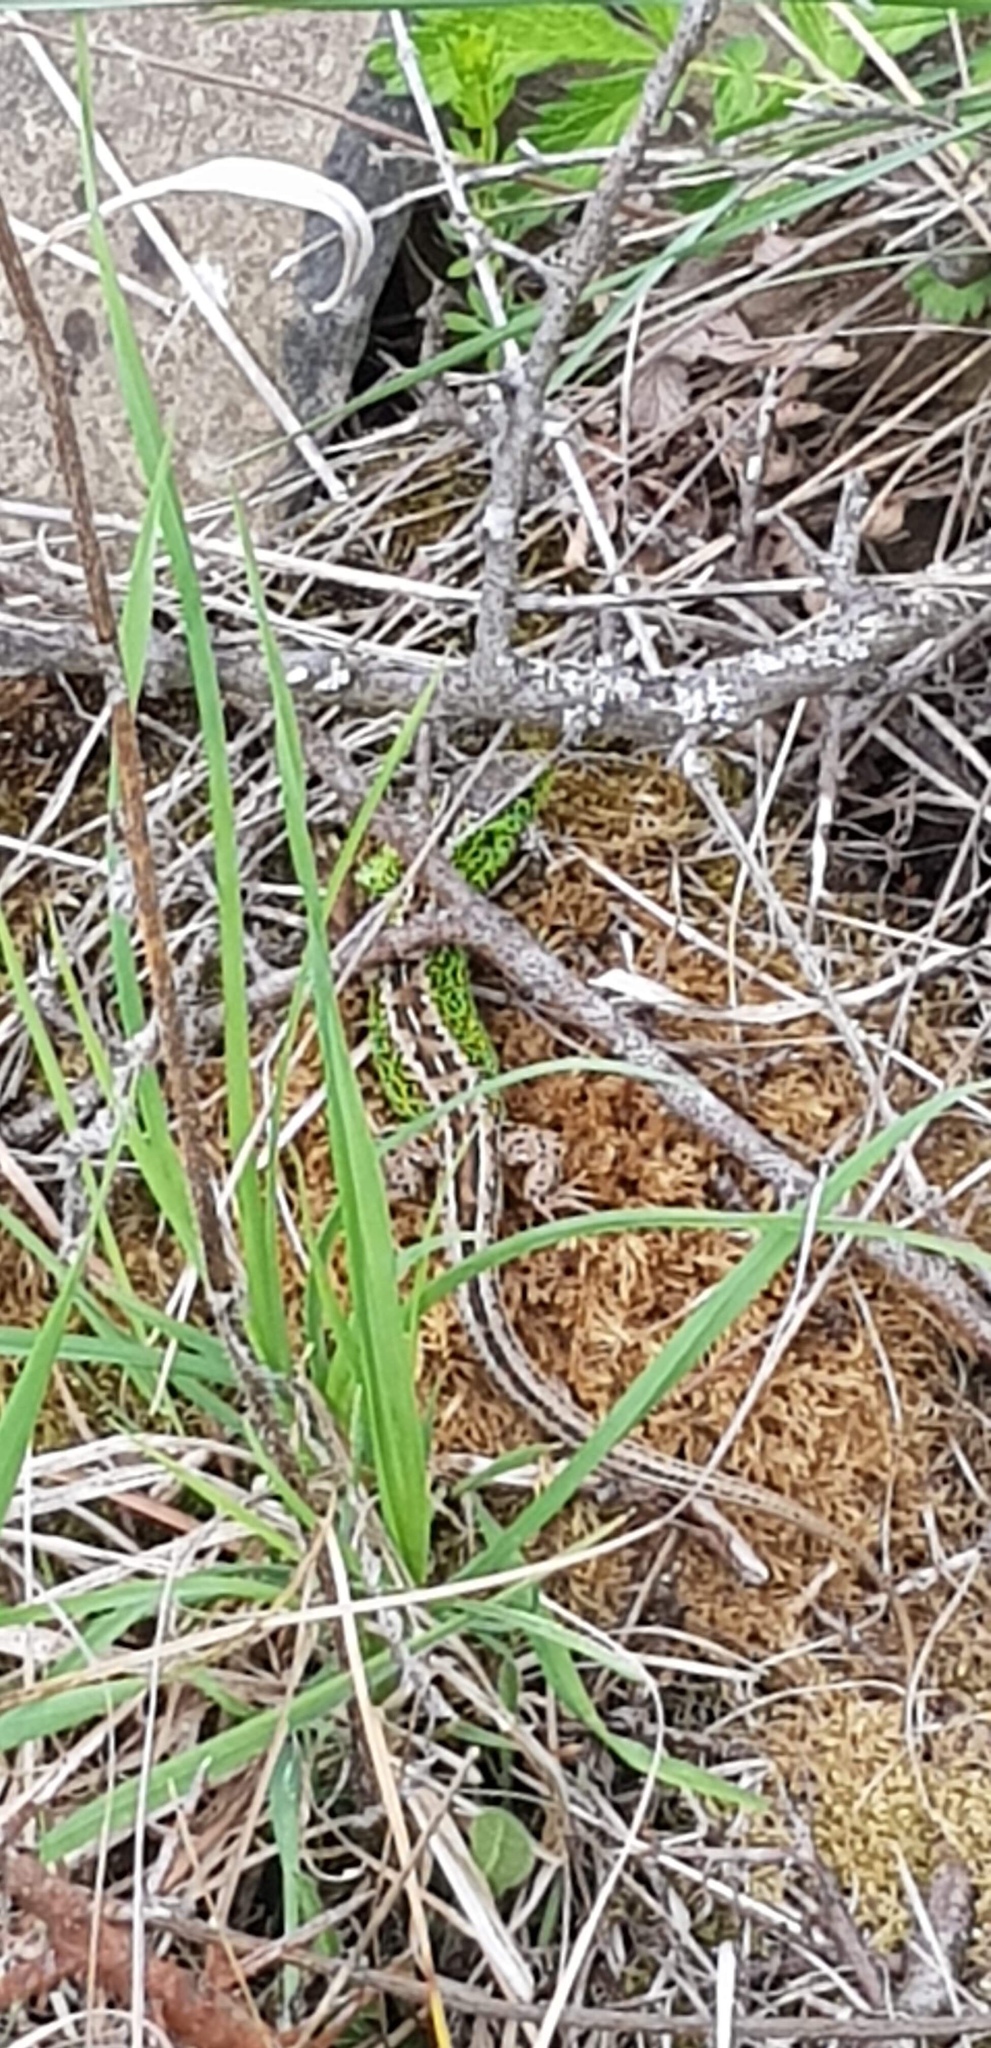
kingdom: Animalia
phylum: Chordata
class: Squamata
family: Lacertidae
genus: Lacerta
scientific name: Lacerta agilis
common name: Sand lizard
